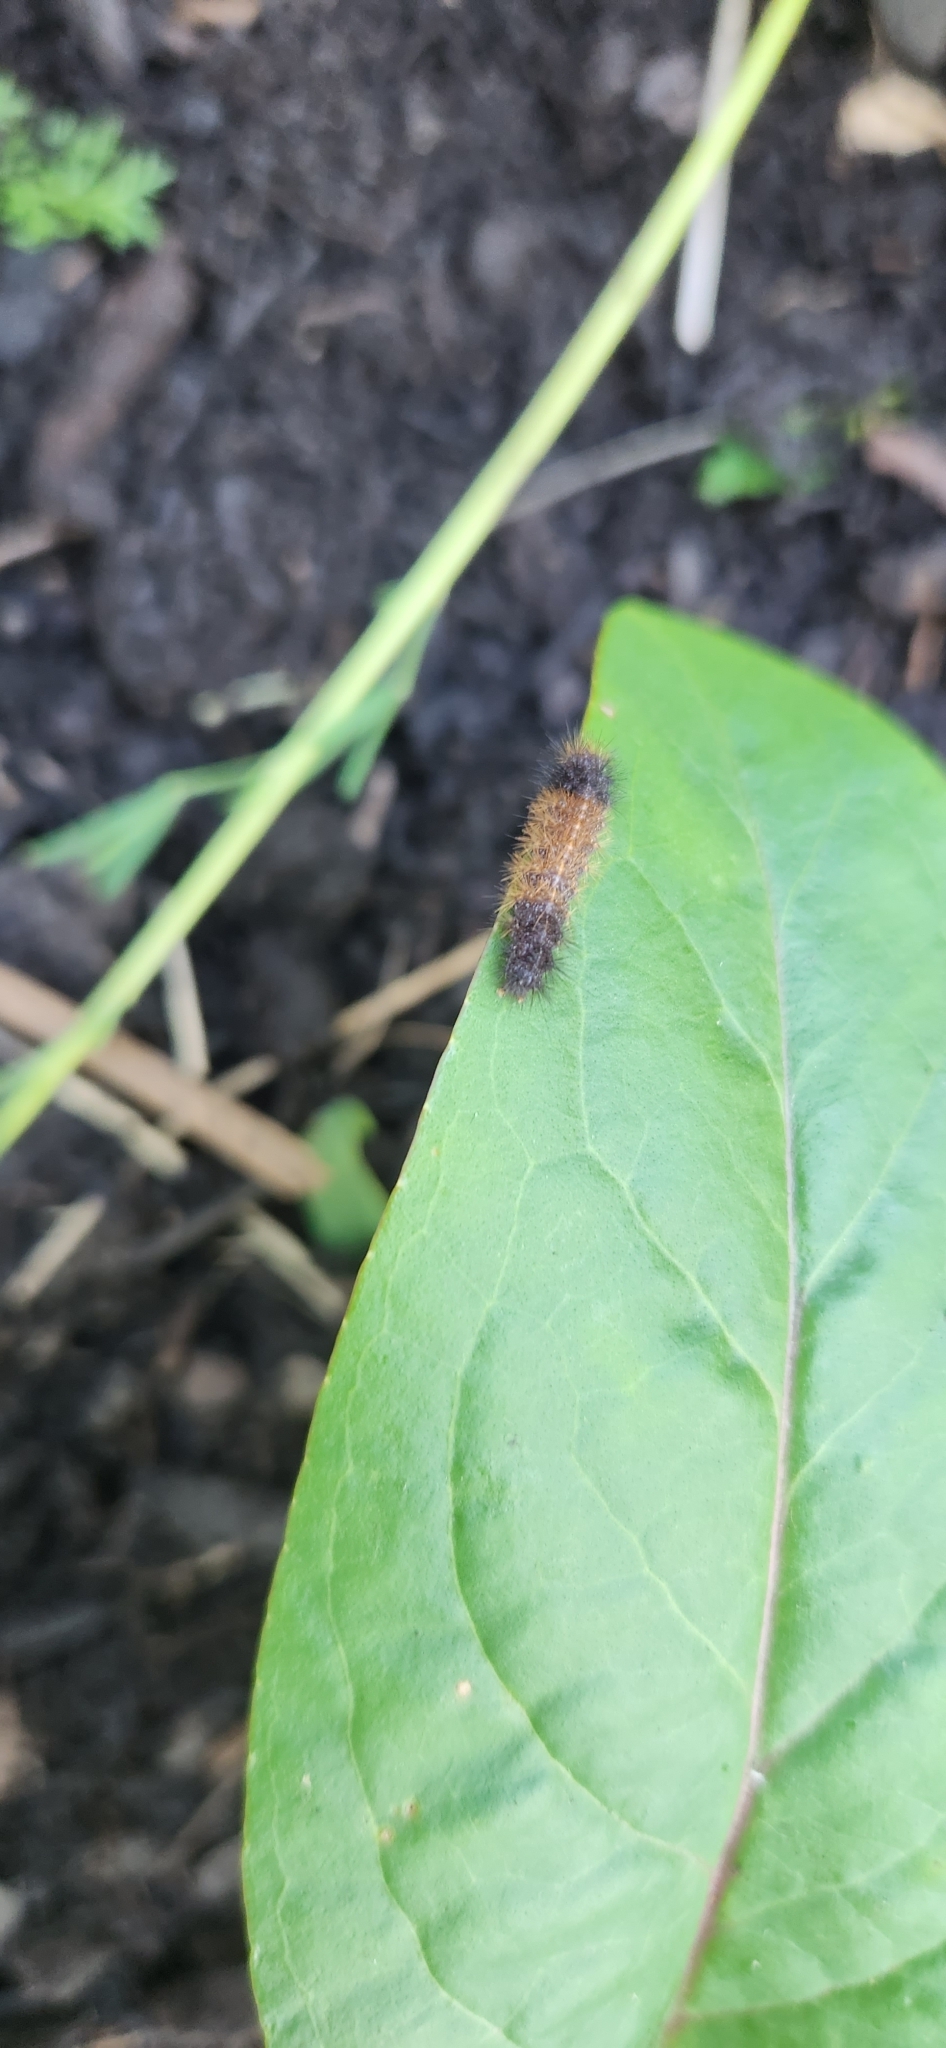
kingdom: Animalia
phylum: Arthropoda
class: Insecta
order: Lepidoptera
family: Erebidae
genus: Pyrrharctia
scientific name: Pyrrharctia isabella
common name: Isabella tiger moth
